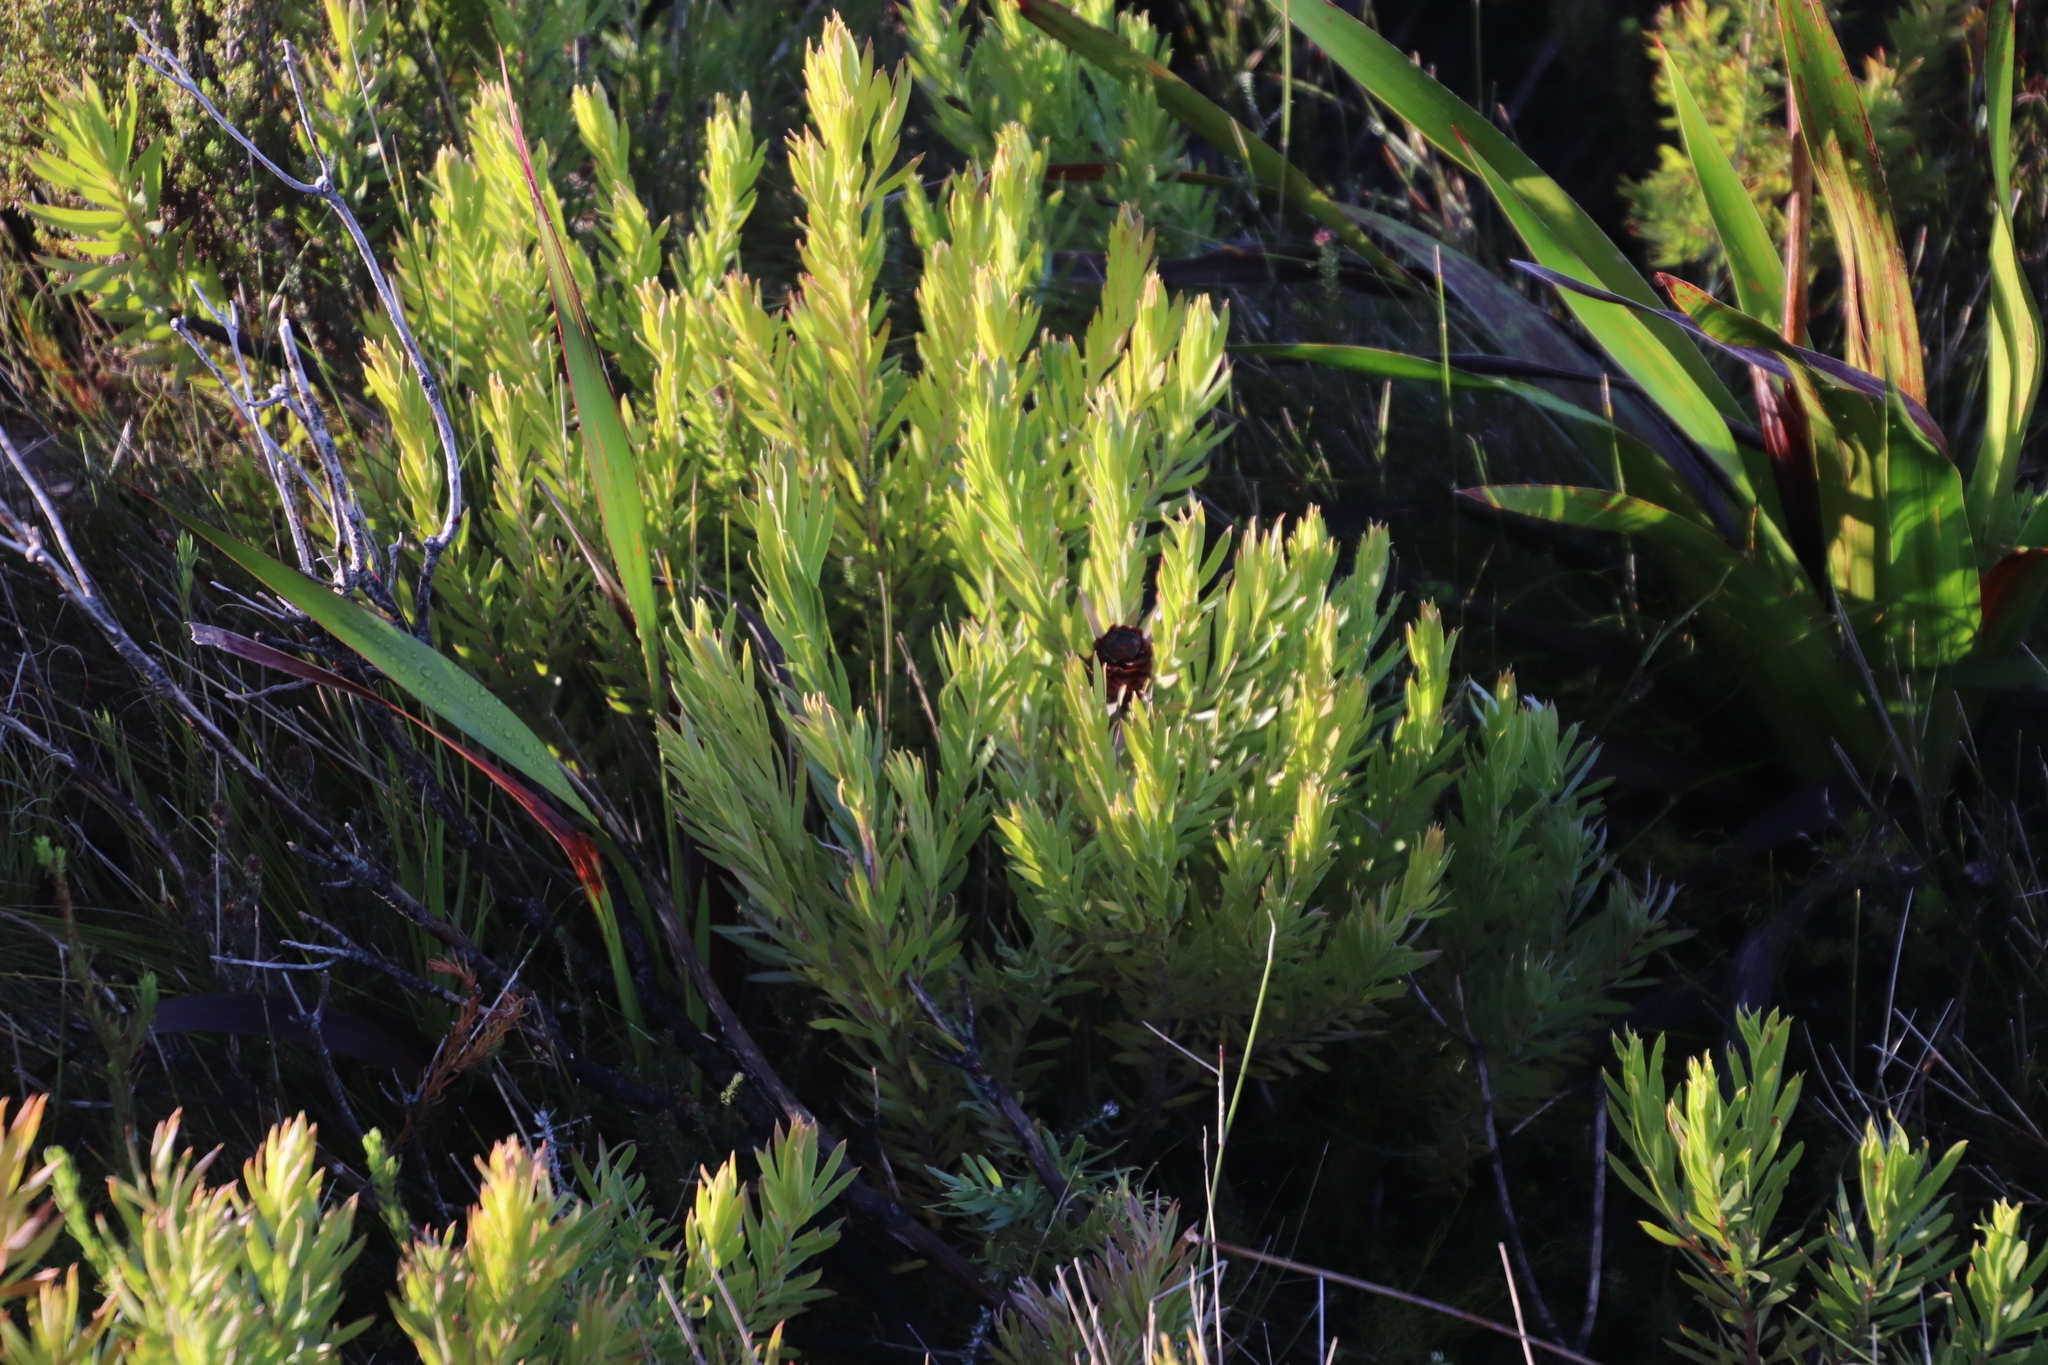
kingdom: Plantae
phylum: Tracheophyta
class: Magnoliopsida
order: Proteales
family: Proteaceae
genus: Leucadendron
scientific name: Leucadendron xanthoconus
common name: Sickle-leaf conebush
